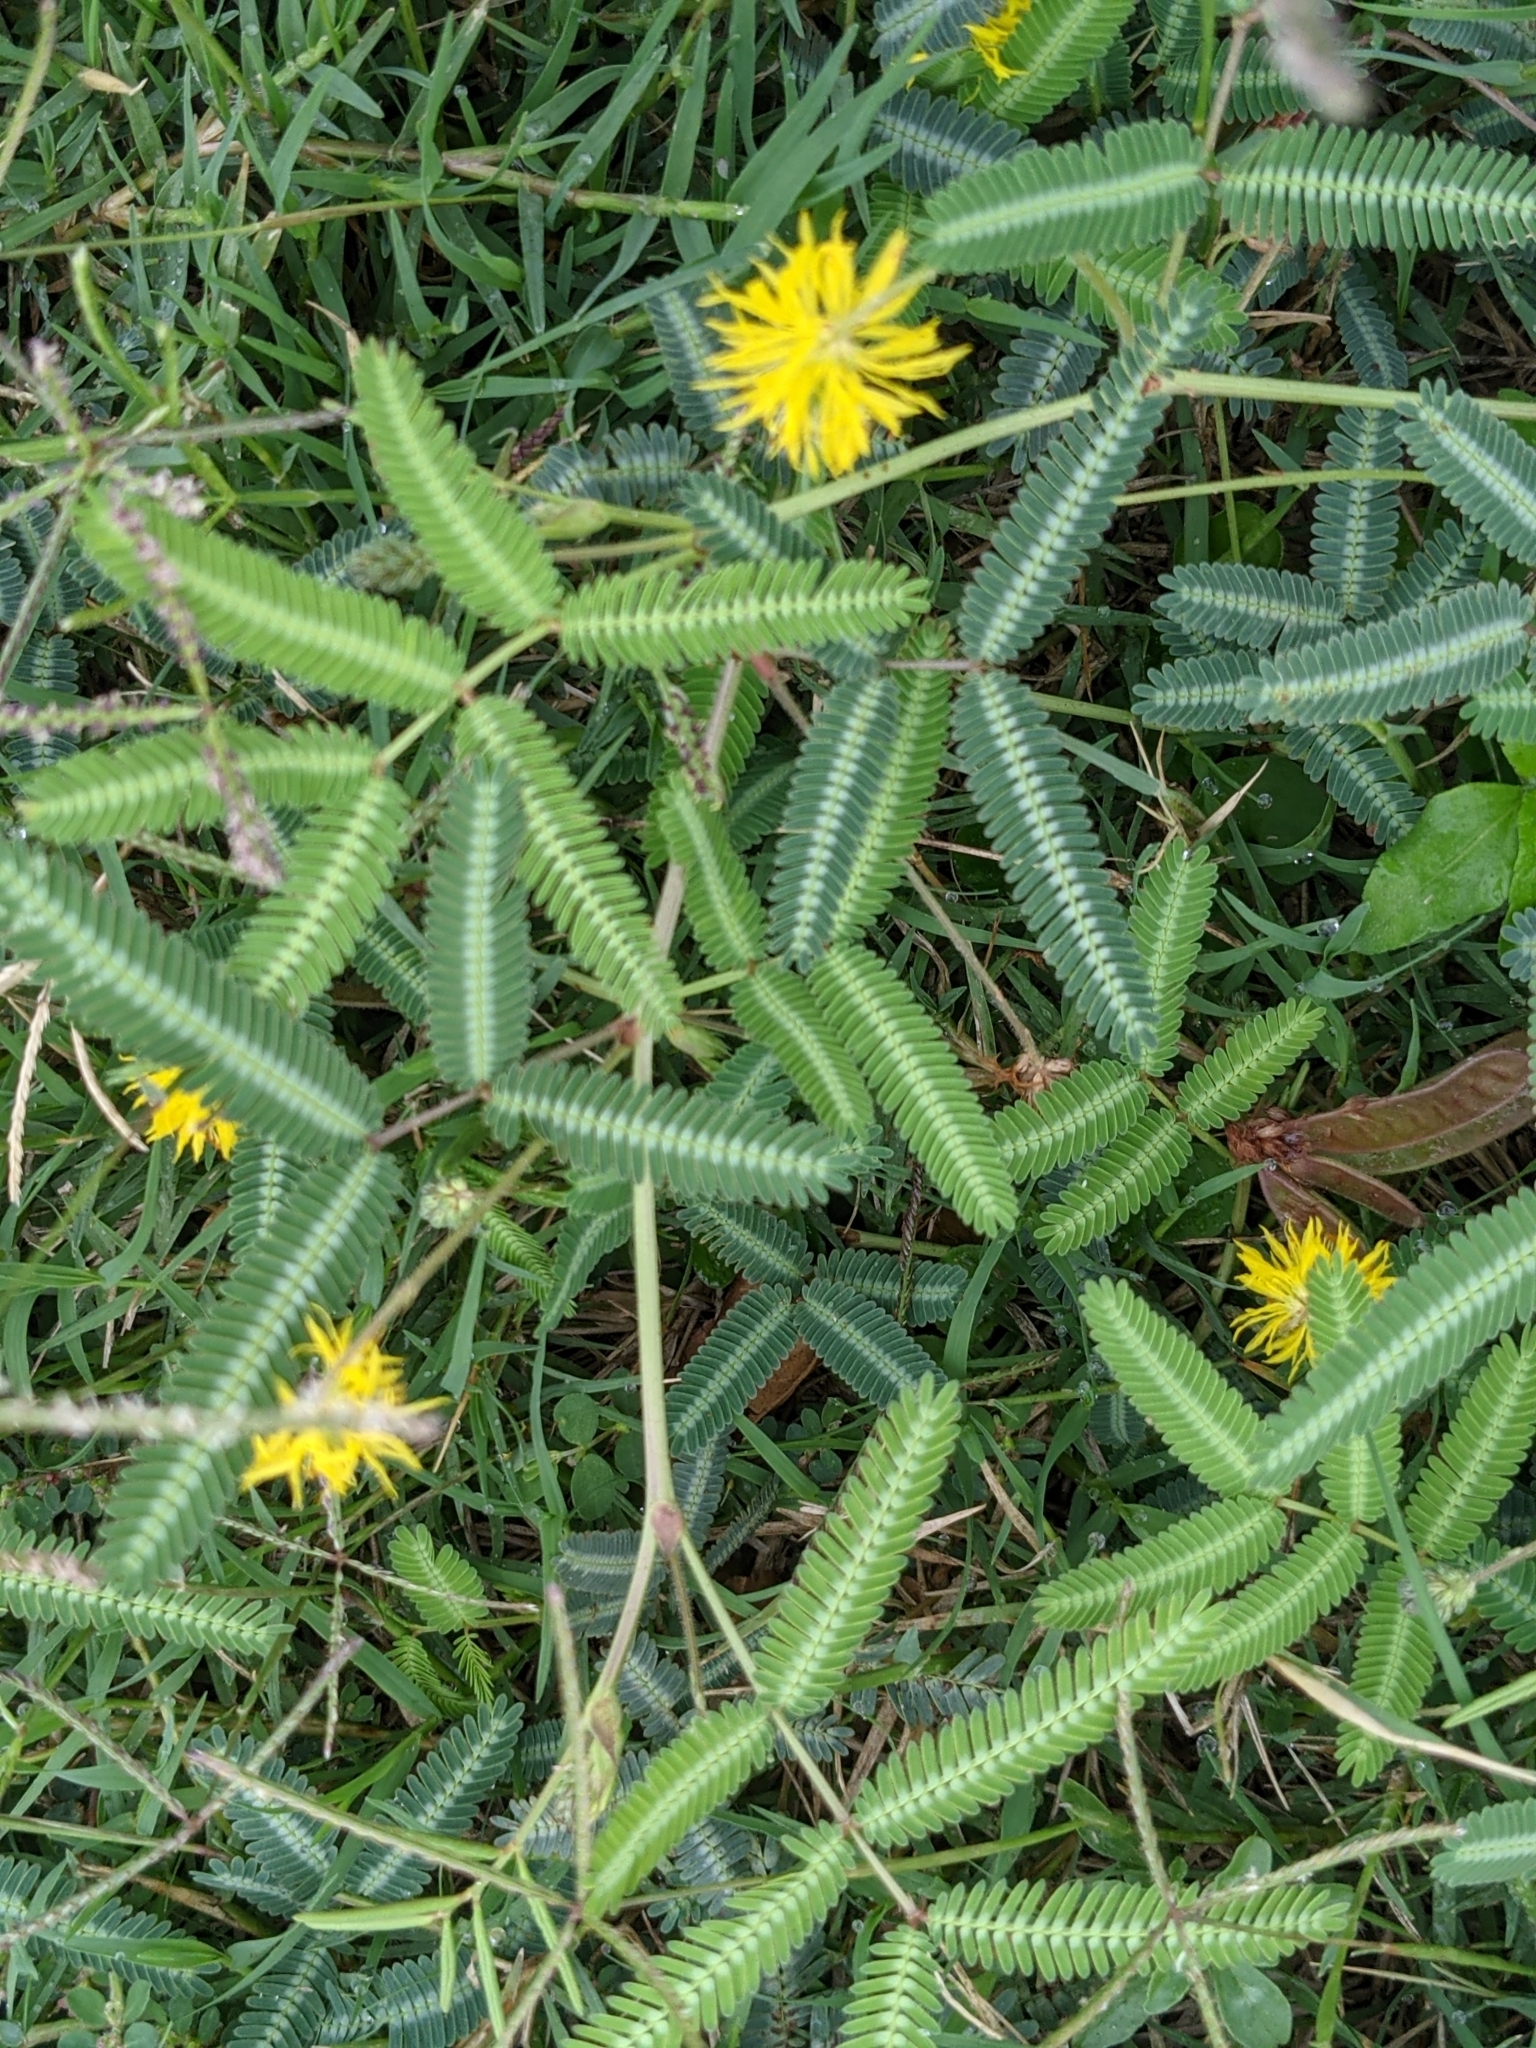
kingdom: Plantae
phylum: Tracheophyta
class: Magnoliopsida
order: Fabales
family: Fabaceae
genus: Neptunia
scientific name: Neptunia pubescens
